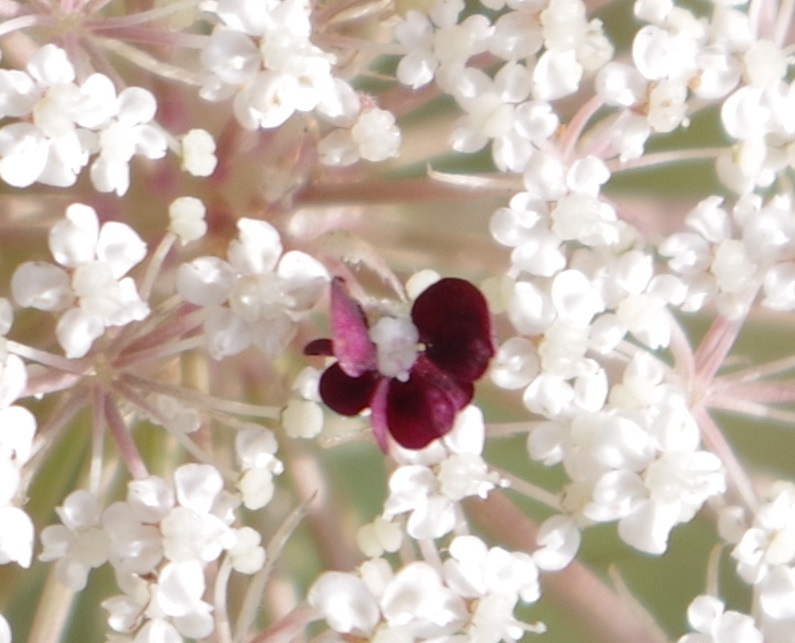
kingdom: Plantae
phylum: Tracheophyta
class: Magnoliopsida
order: Apiales
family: Apiaceae
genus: Daucus
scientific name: Daucus carota
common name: Wild carrot
